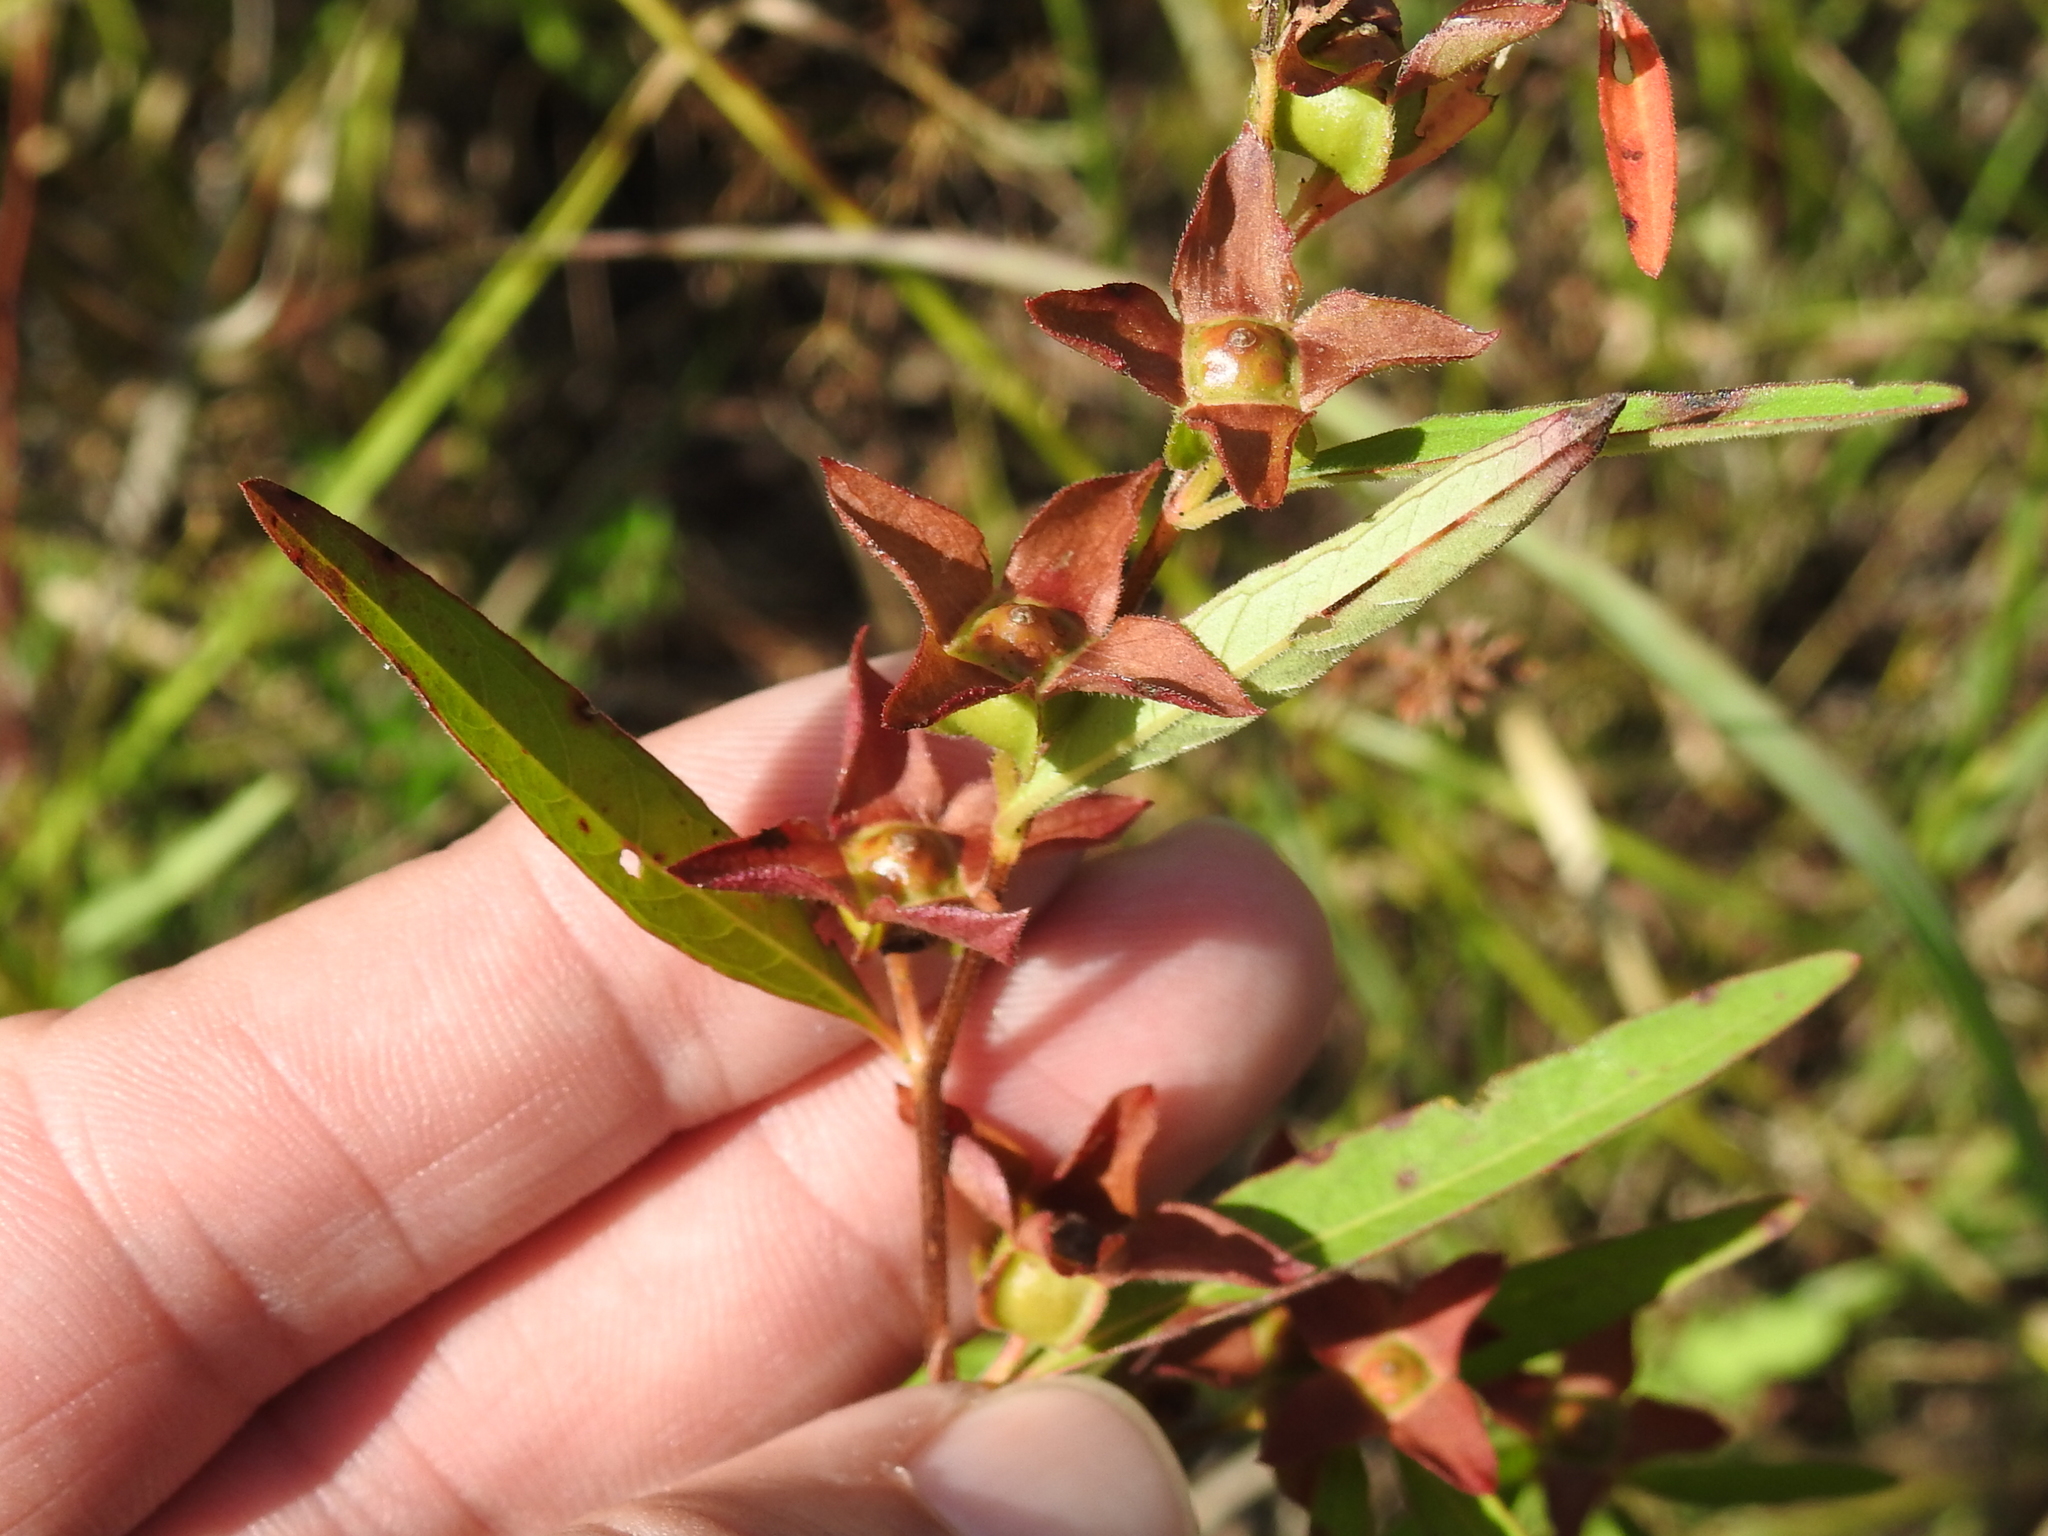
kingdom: Plantae
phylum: Tracheophyta
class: Magnoliopsida
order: Myrtales
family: Onagraceae
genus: Ludwigia
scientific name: Ludwigia alternifolia
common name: Rattlebox
